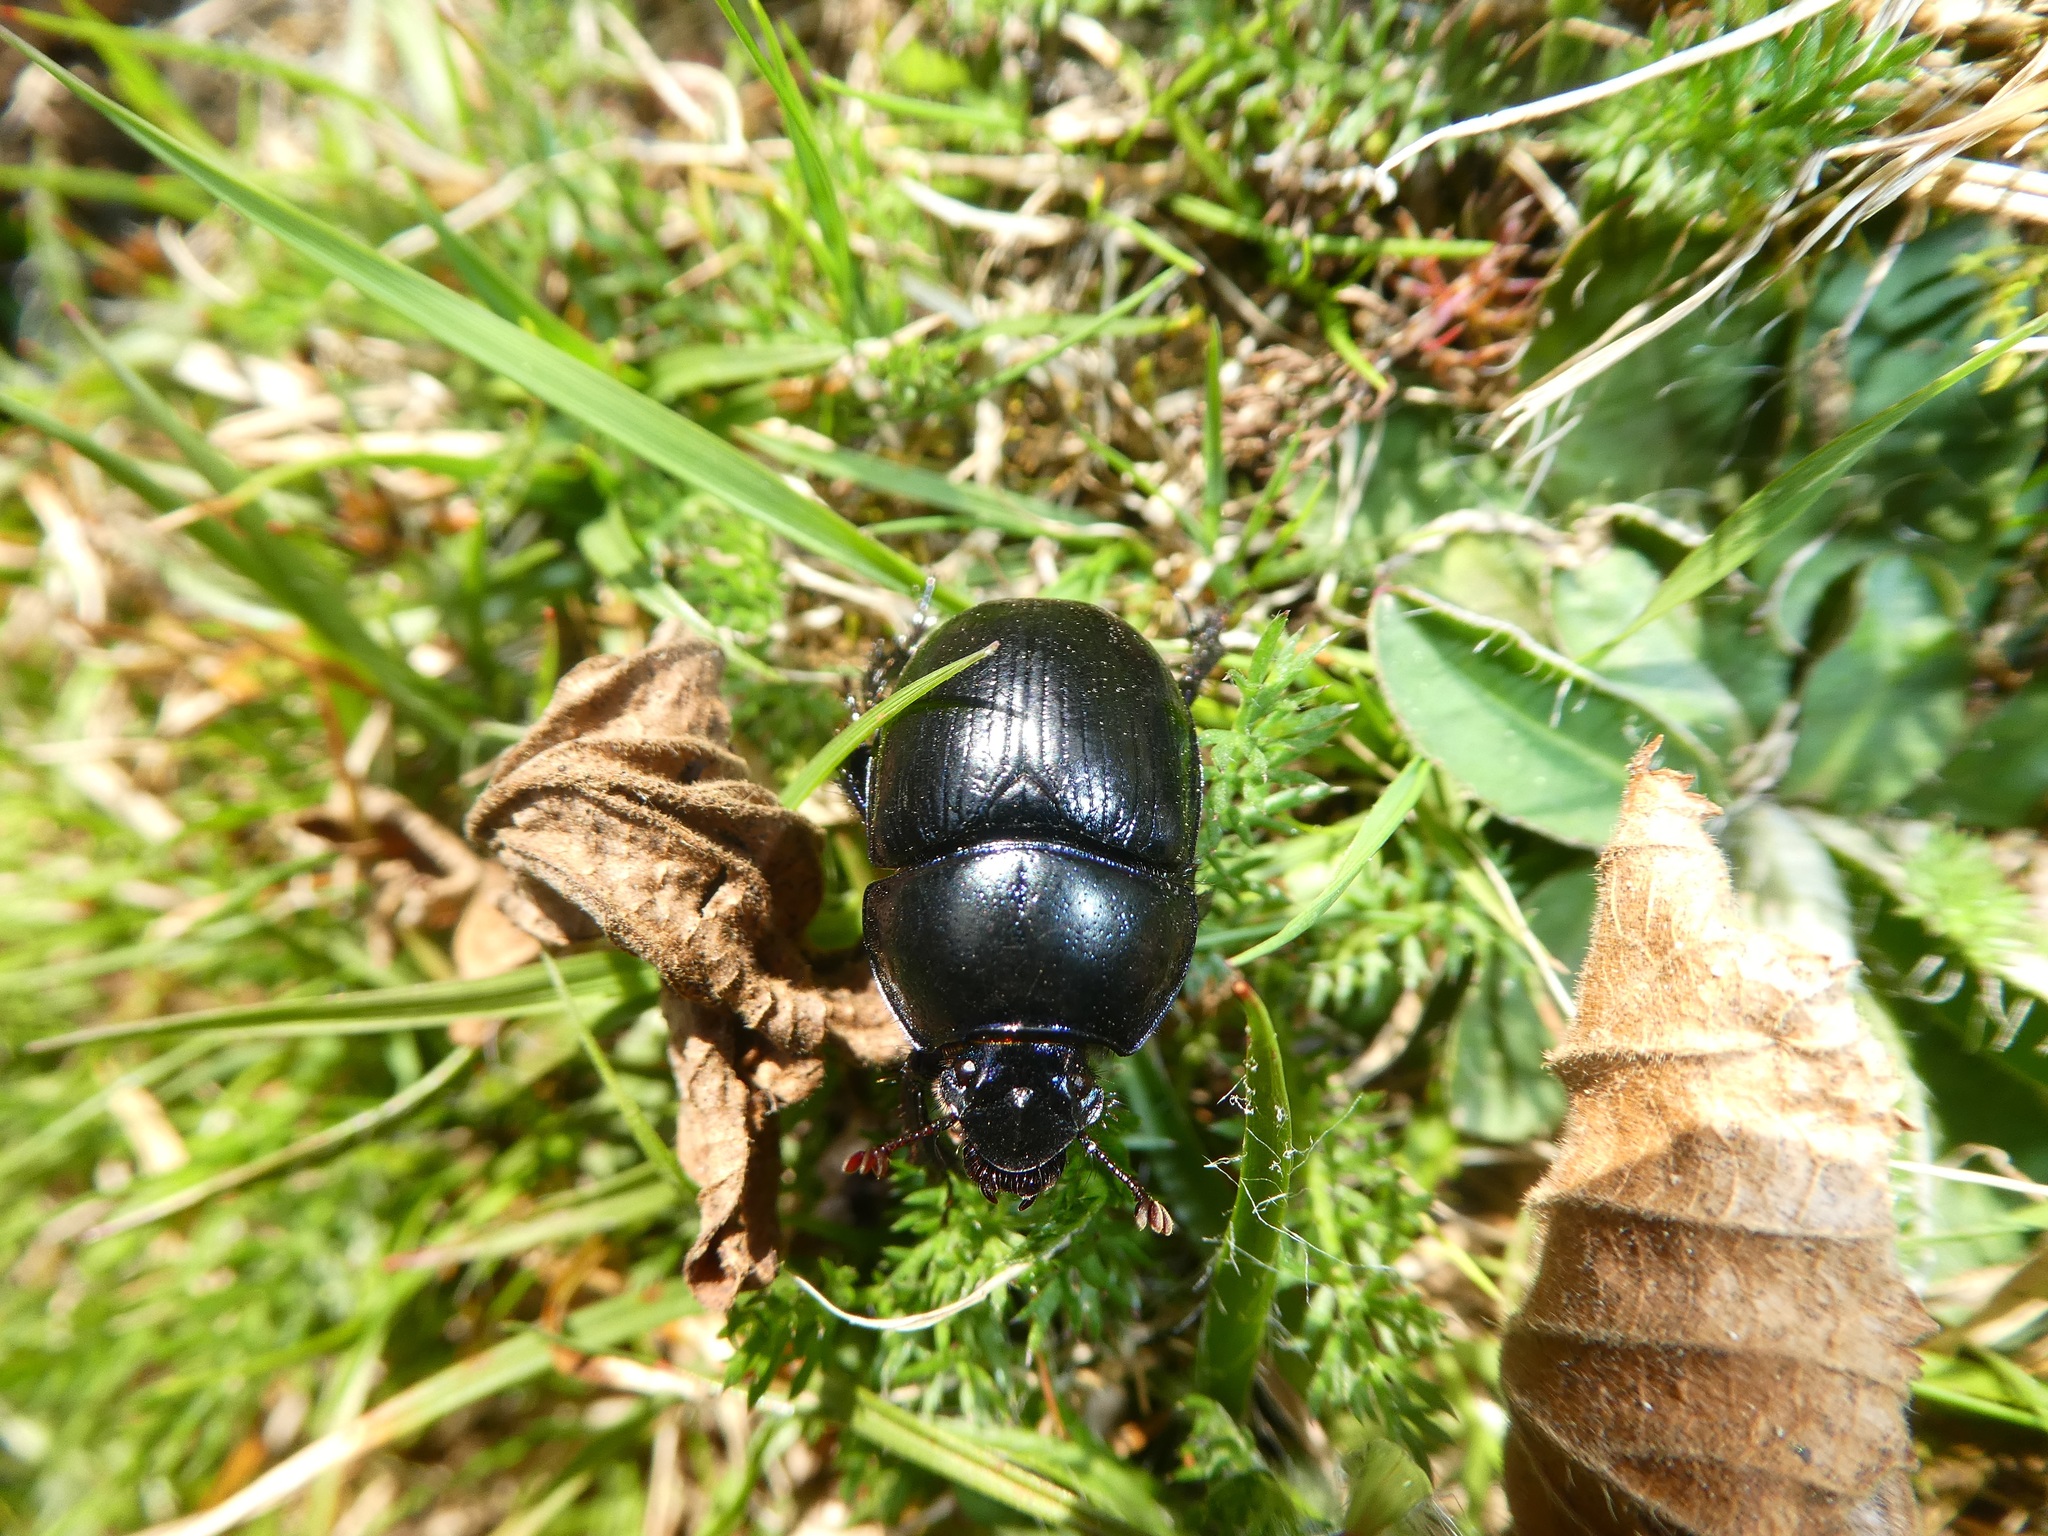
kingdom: Animalia
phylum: Arthropoda
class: Insecta
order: Coleoptera
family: Geotrupidae
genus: Anoplotrupes
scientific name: Anoplotrupes stercorosus
